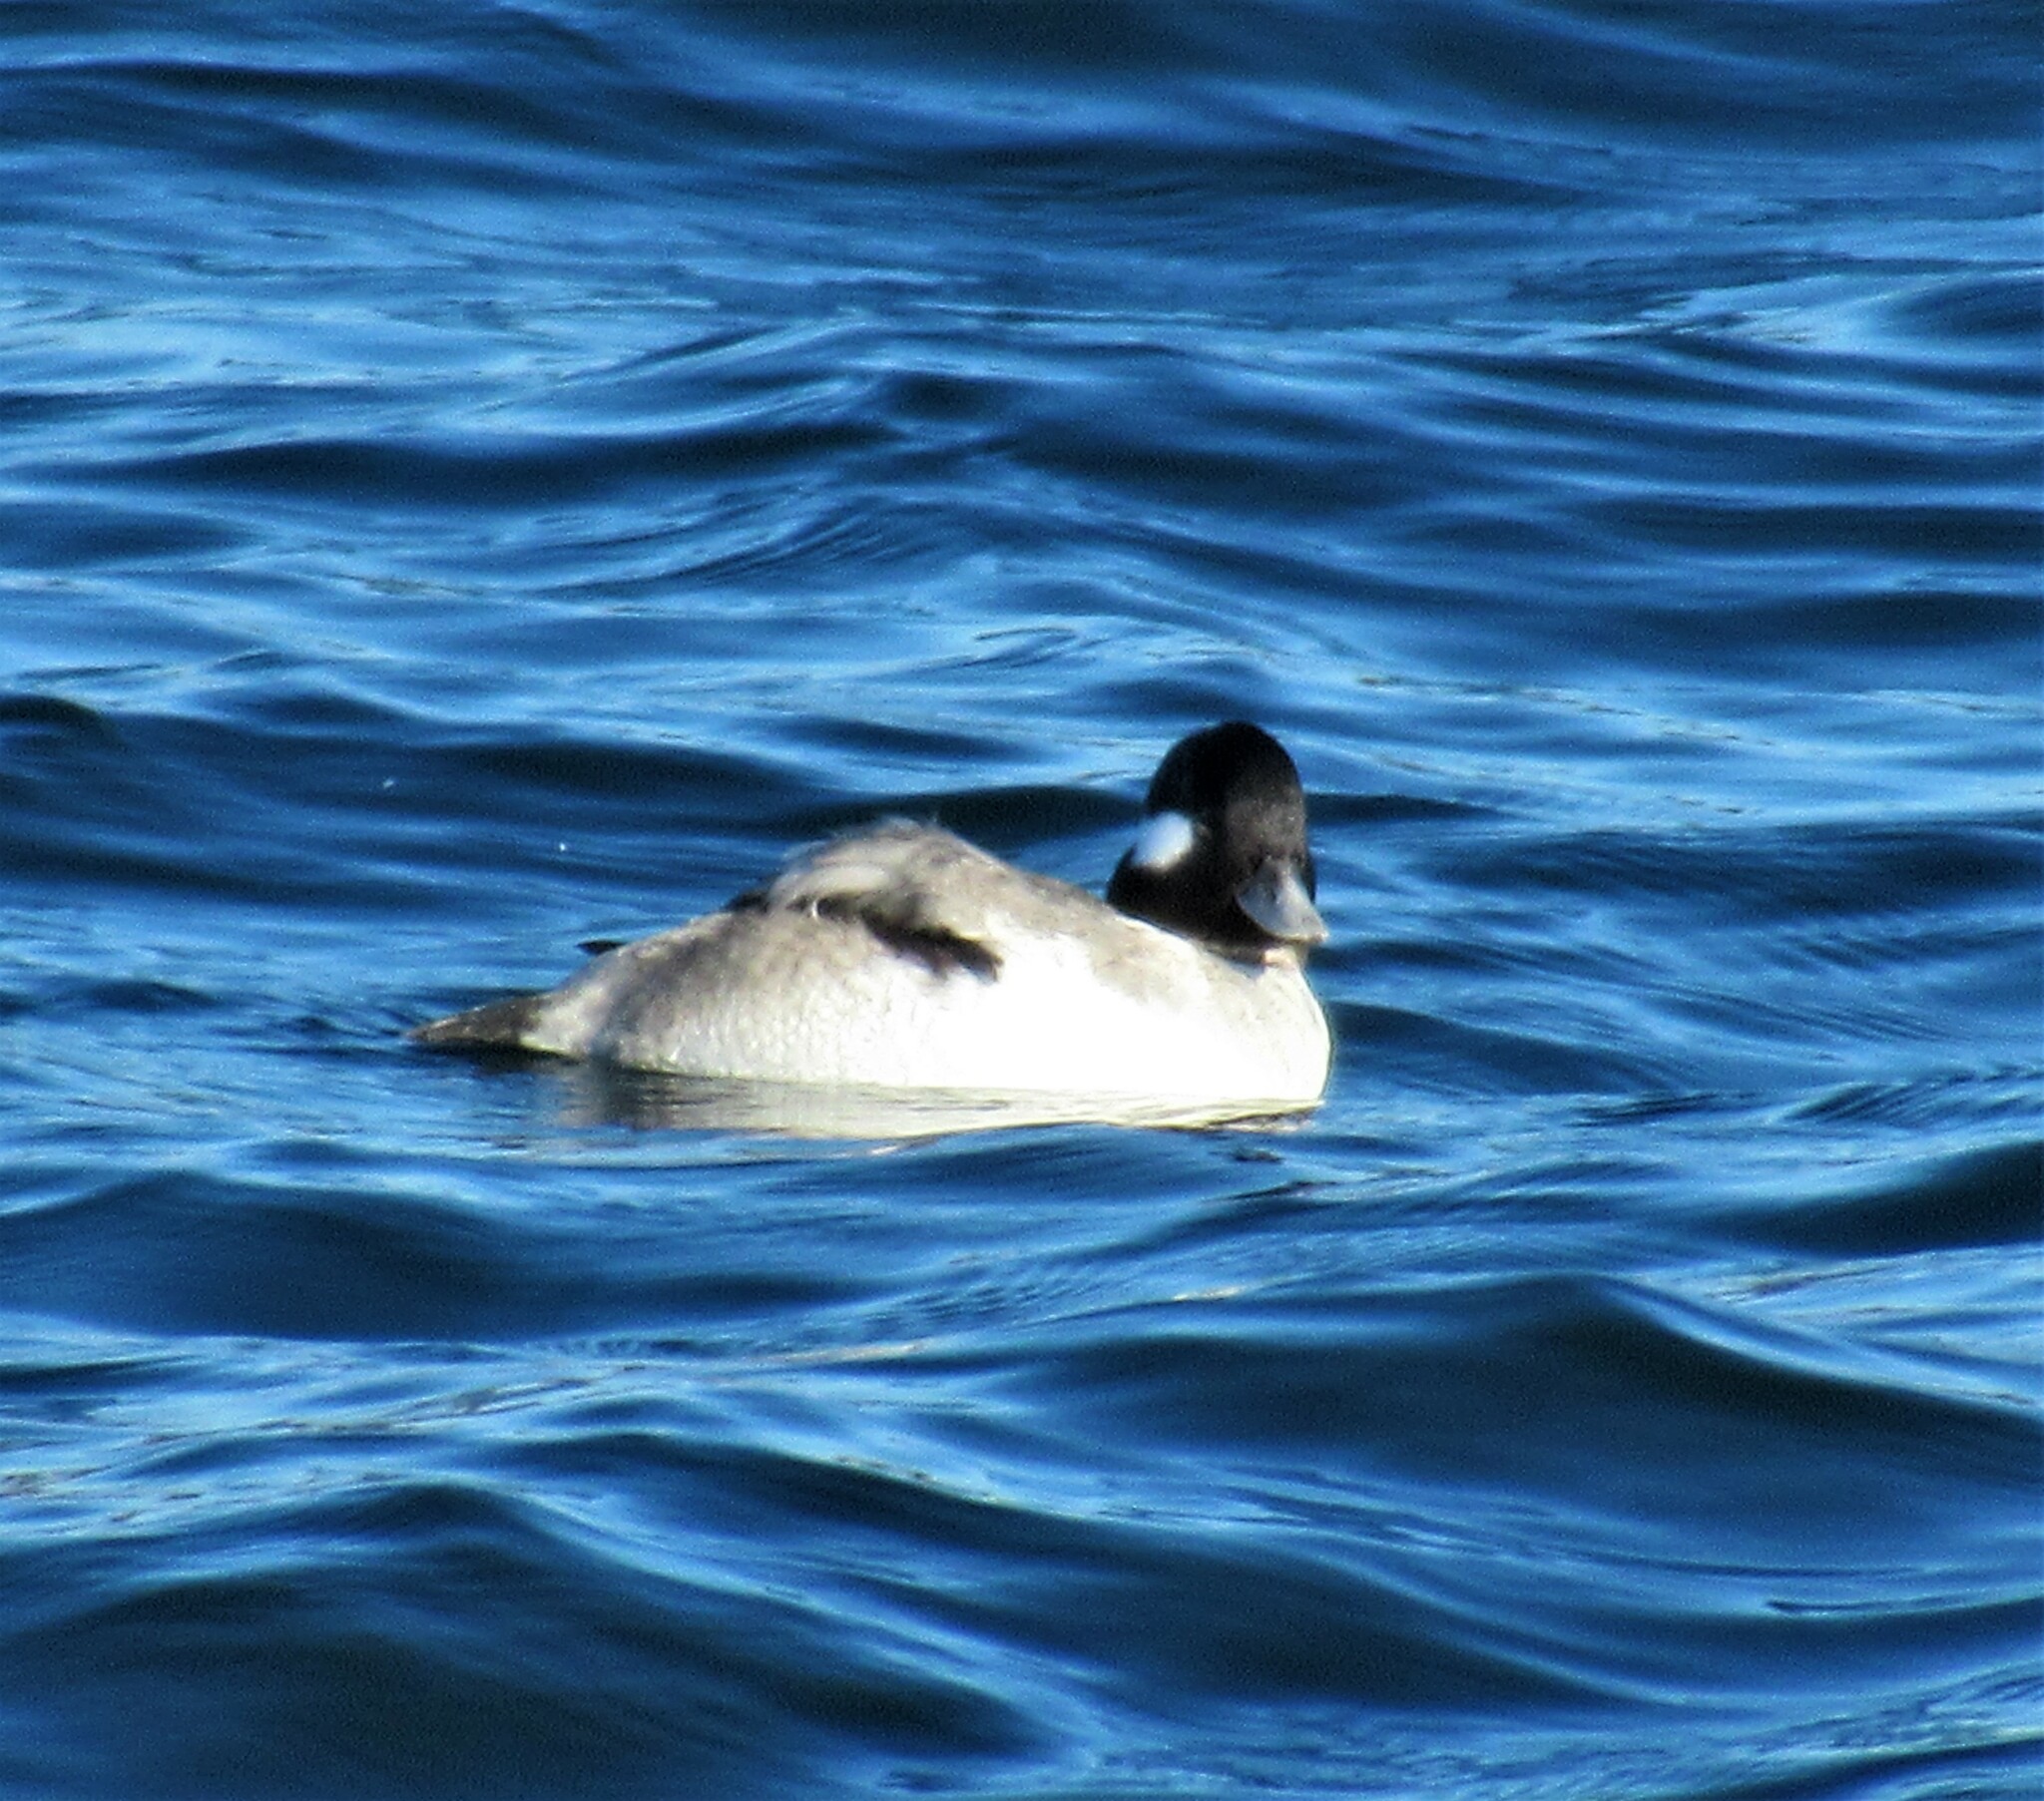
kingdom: Animalia
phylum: Chordata
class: Aves
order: Anseriformes
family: Anatidae
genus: Bucephala
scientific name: Bucephala albeola
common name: Bufflehead
